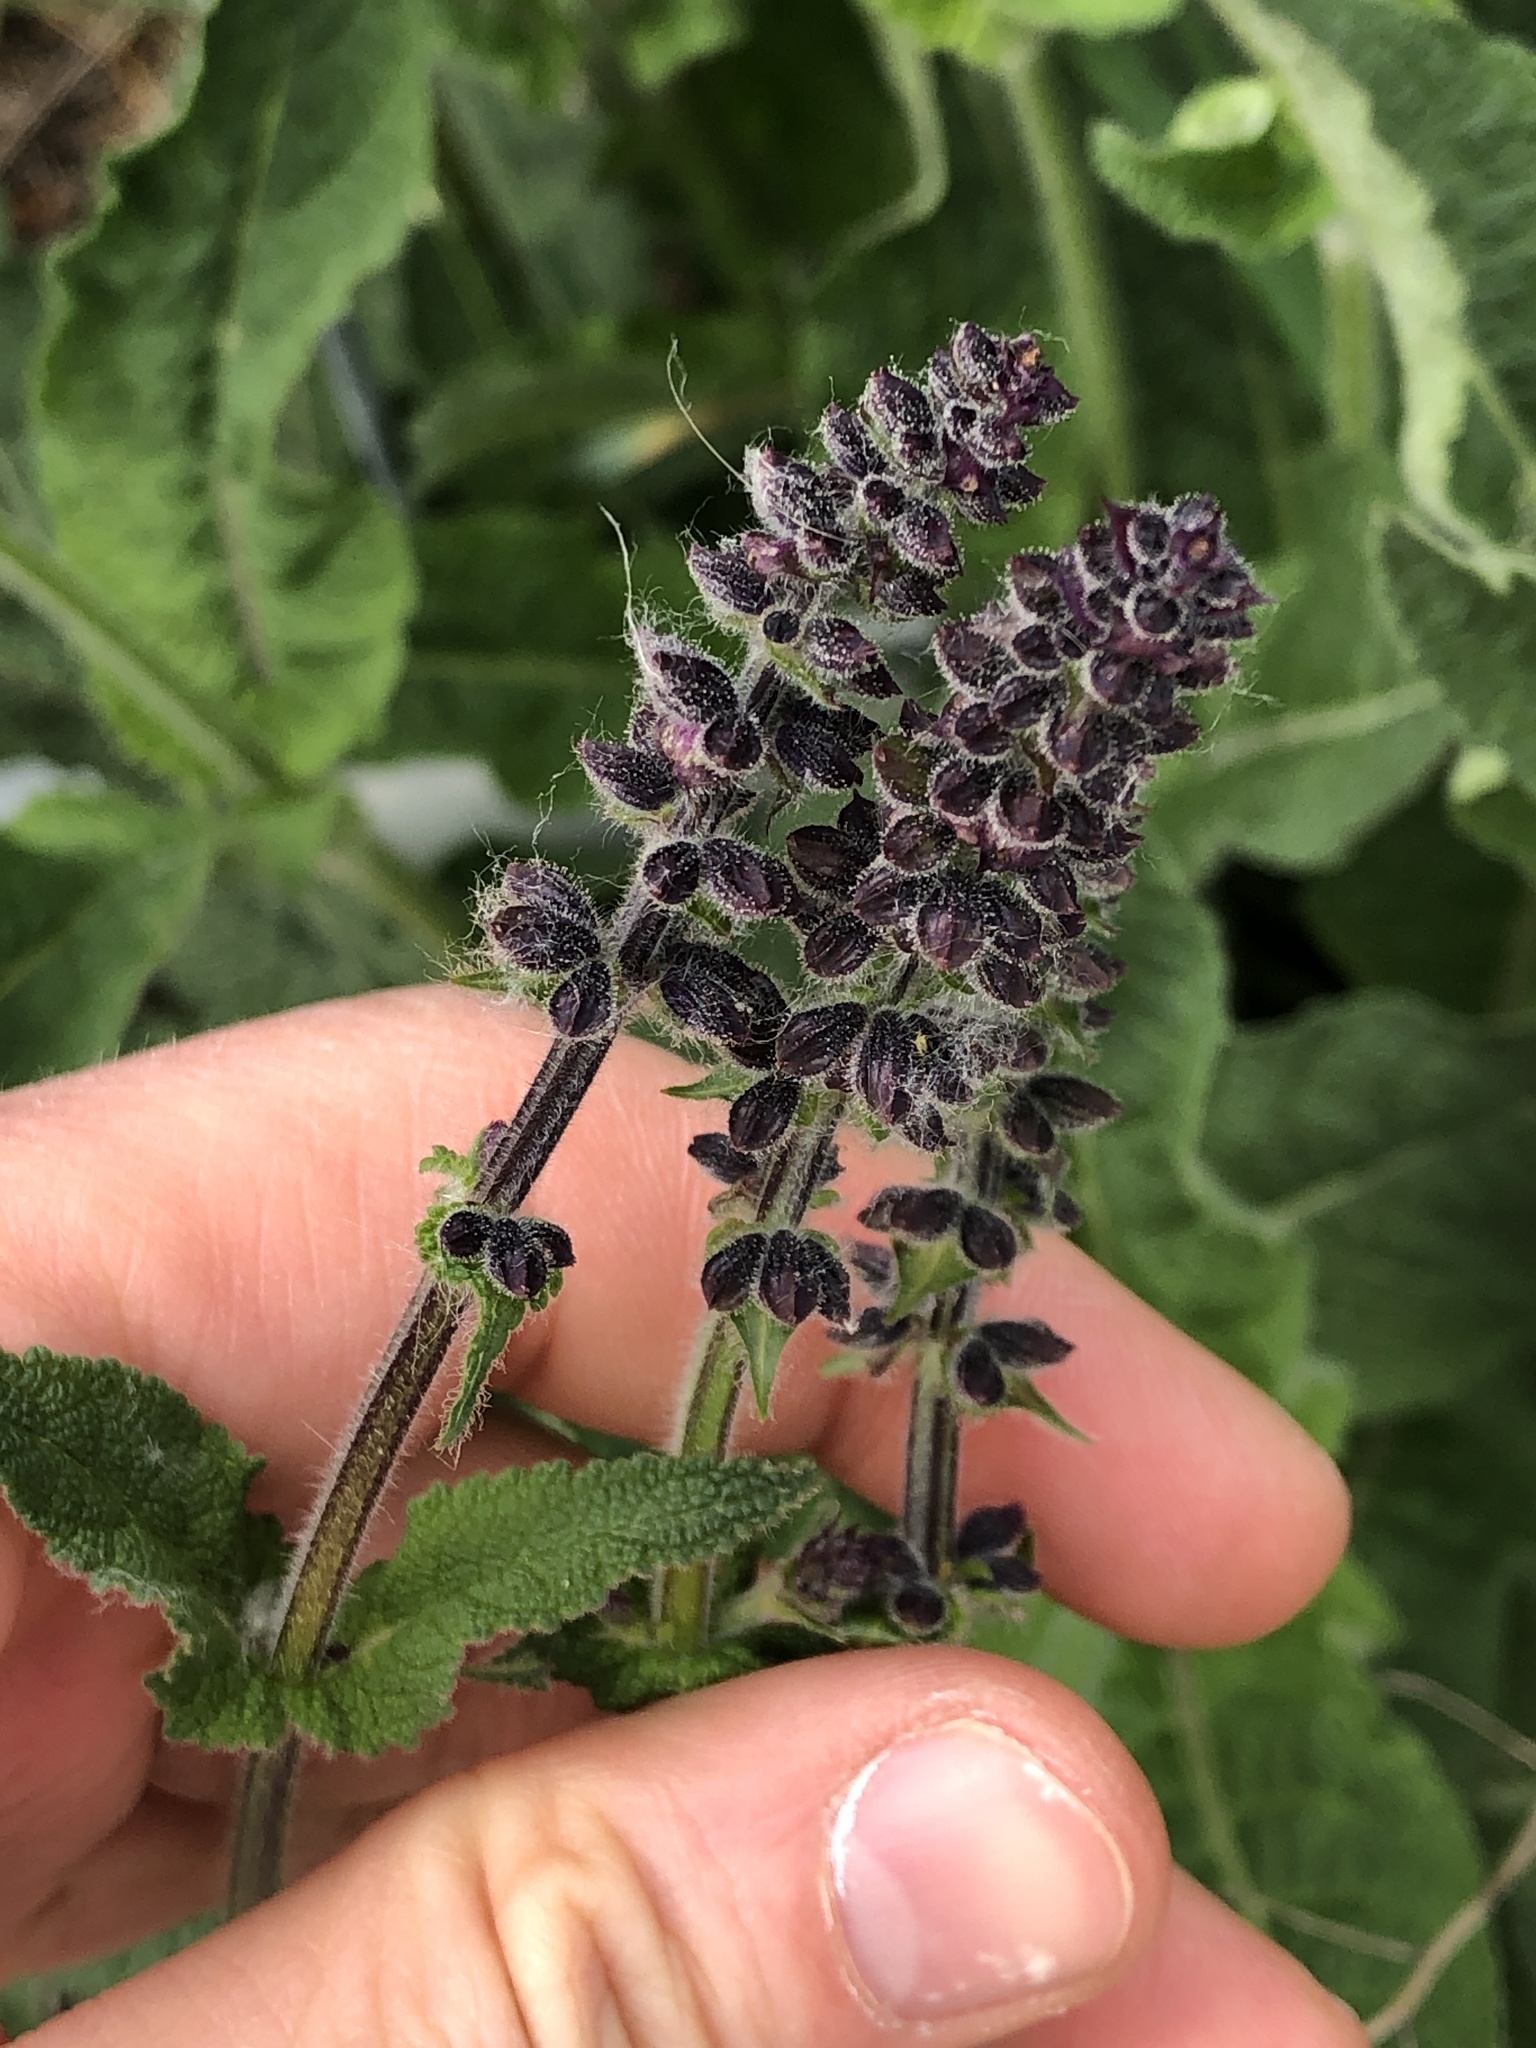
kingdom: Plantae
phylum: Tracheophyta
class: Magnoliopsida
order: Lamiales
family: Lamiaceae
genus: Salvia
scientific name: Salvia pratensis
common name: Meadow sage
